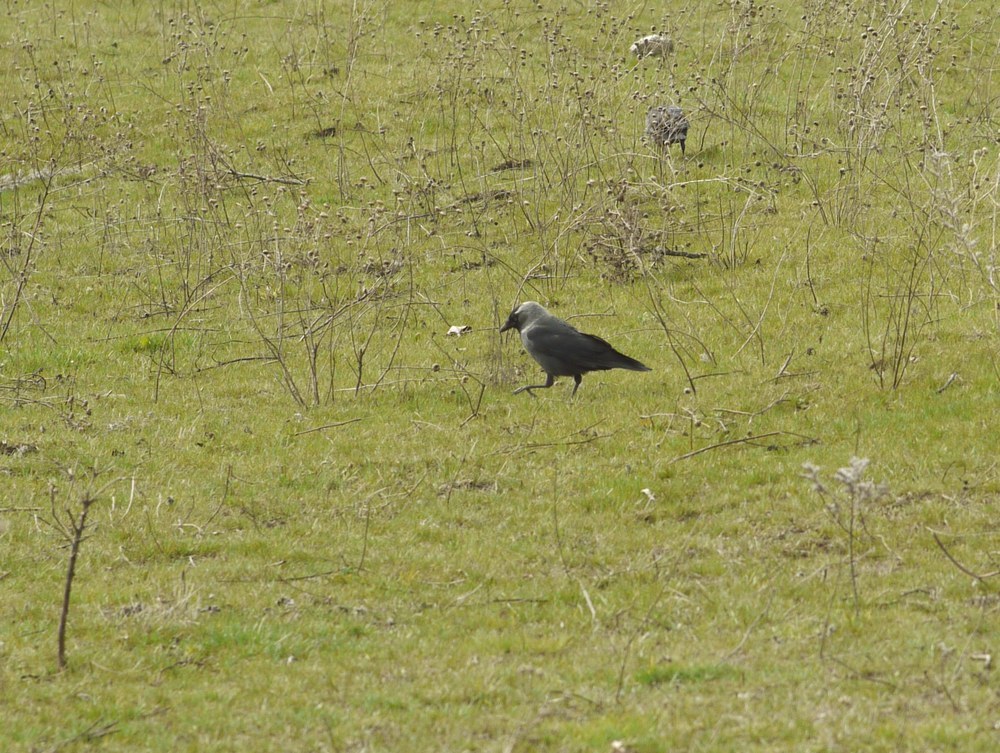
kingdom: Animalia
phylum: Chordata
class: Aves
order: Passeriformes
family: Corvidae
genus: Coloeus
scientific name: Coloeus monedula
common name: Western jackdaw
